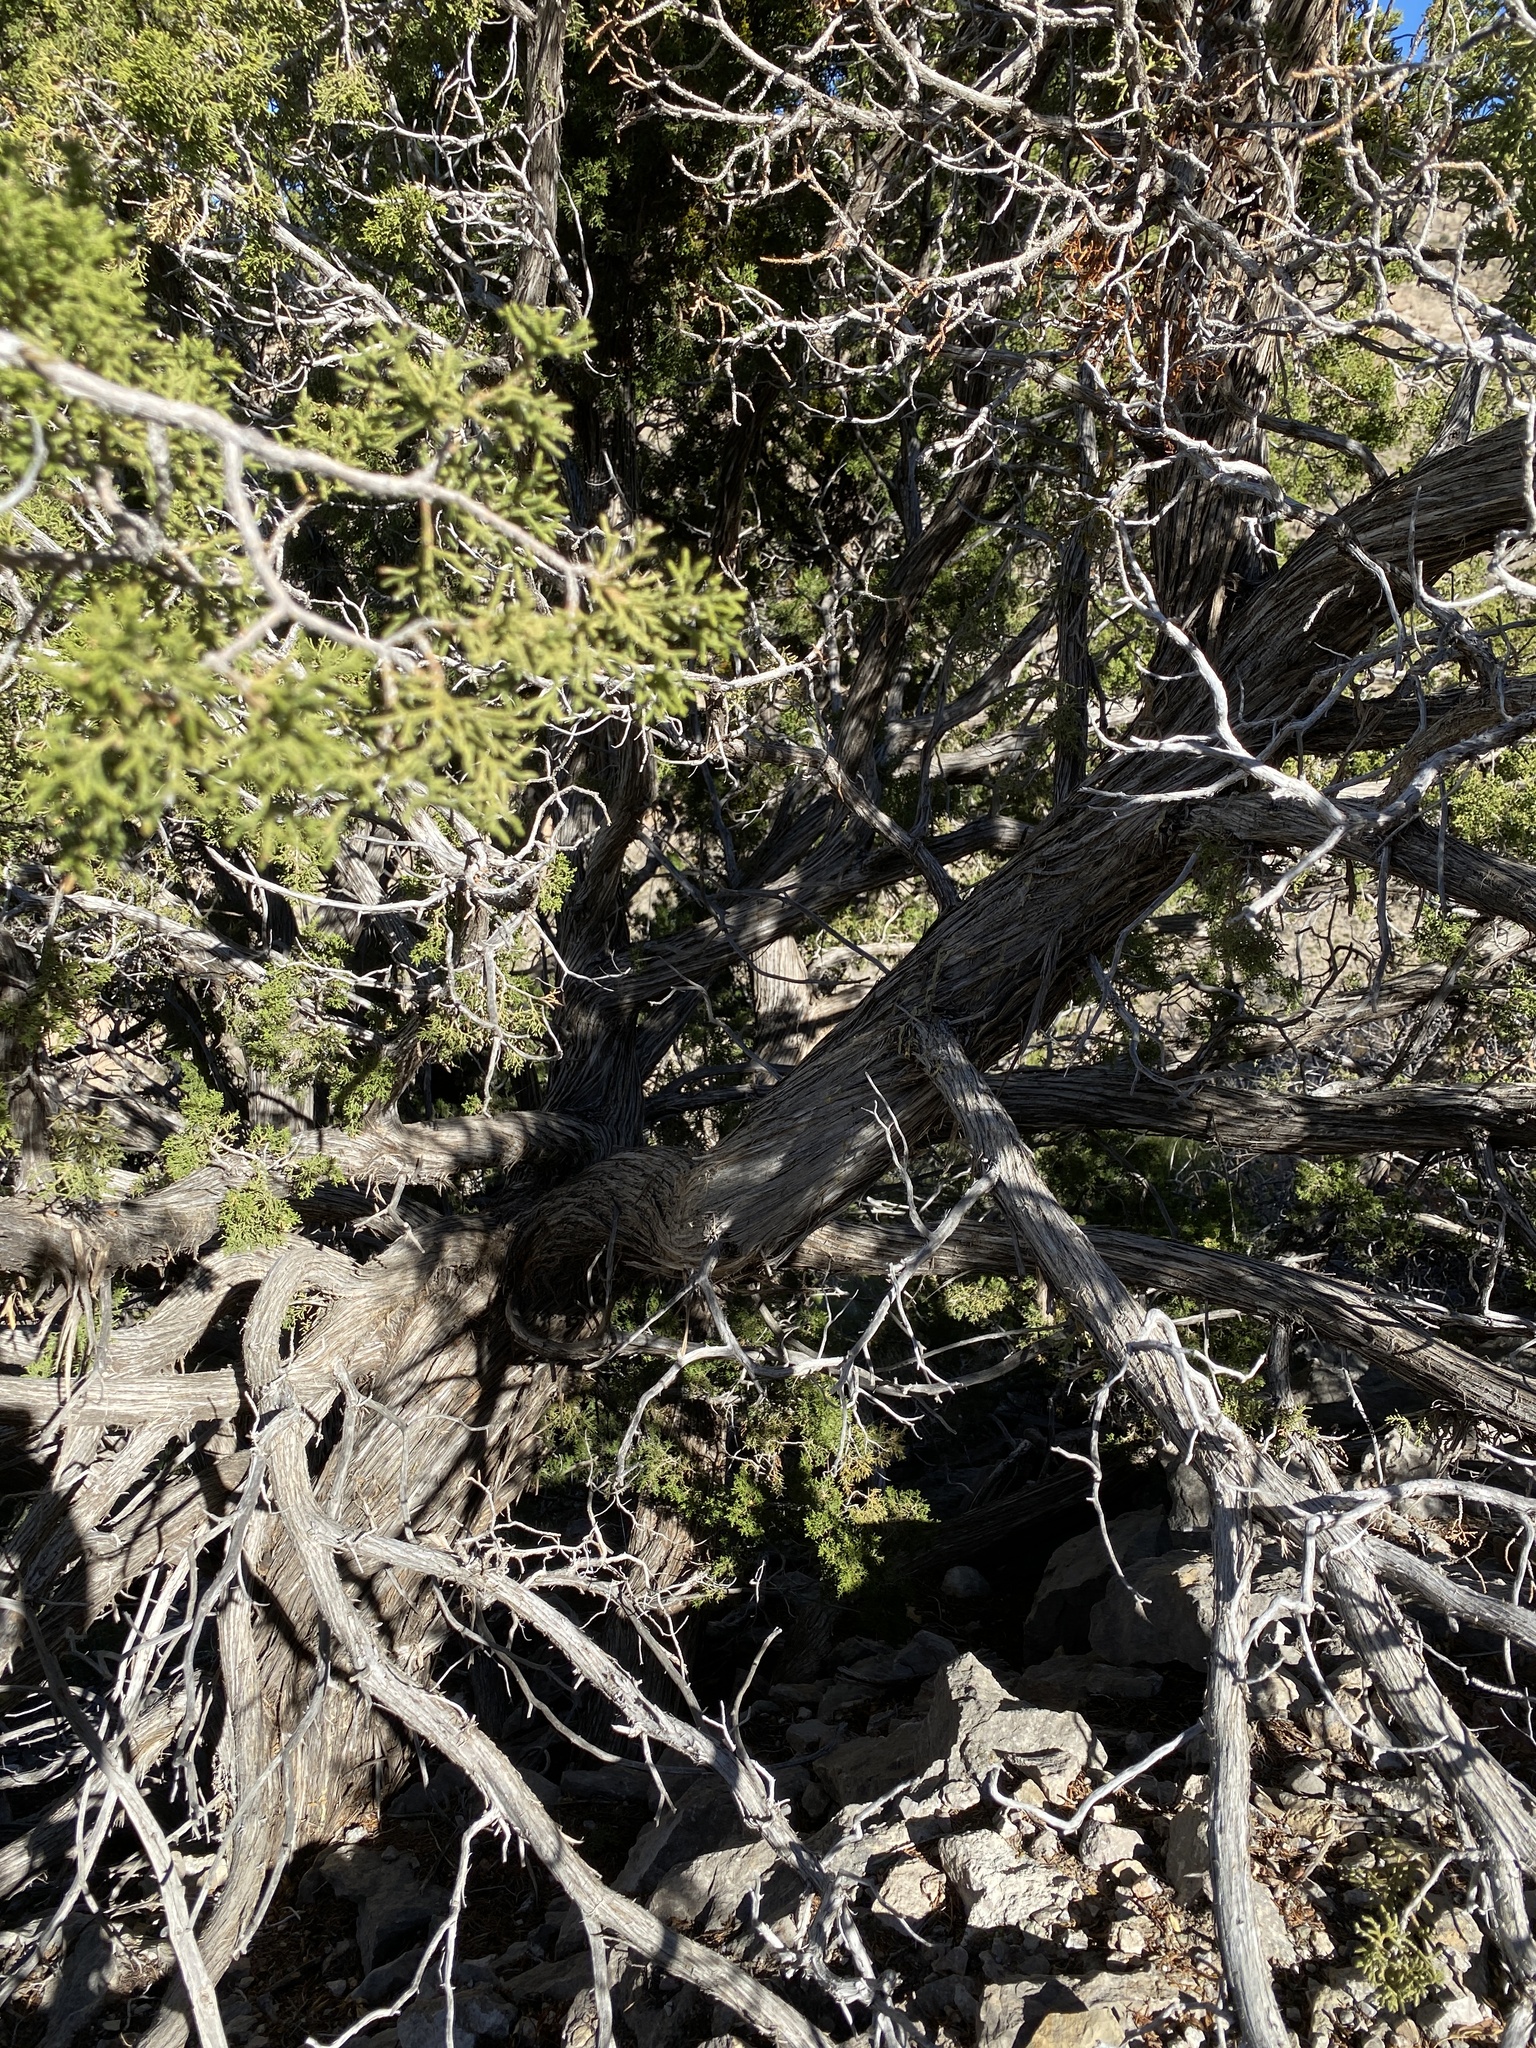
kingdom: Plantae
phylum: Tracheophyta
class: Pinopsida
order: Pinales
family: Cupressaceae
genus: Juniperus
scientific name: Juniperus monosperma
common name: One-seed juniper
